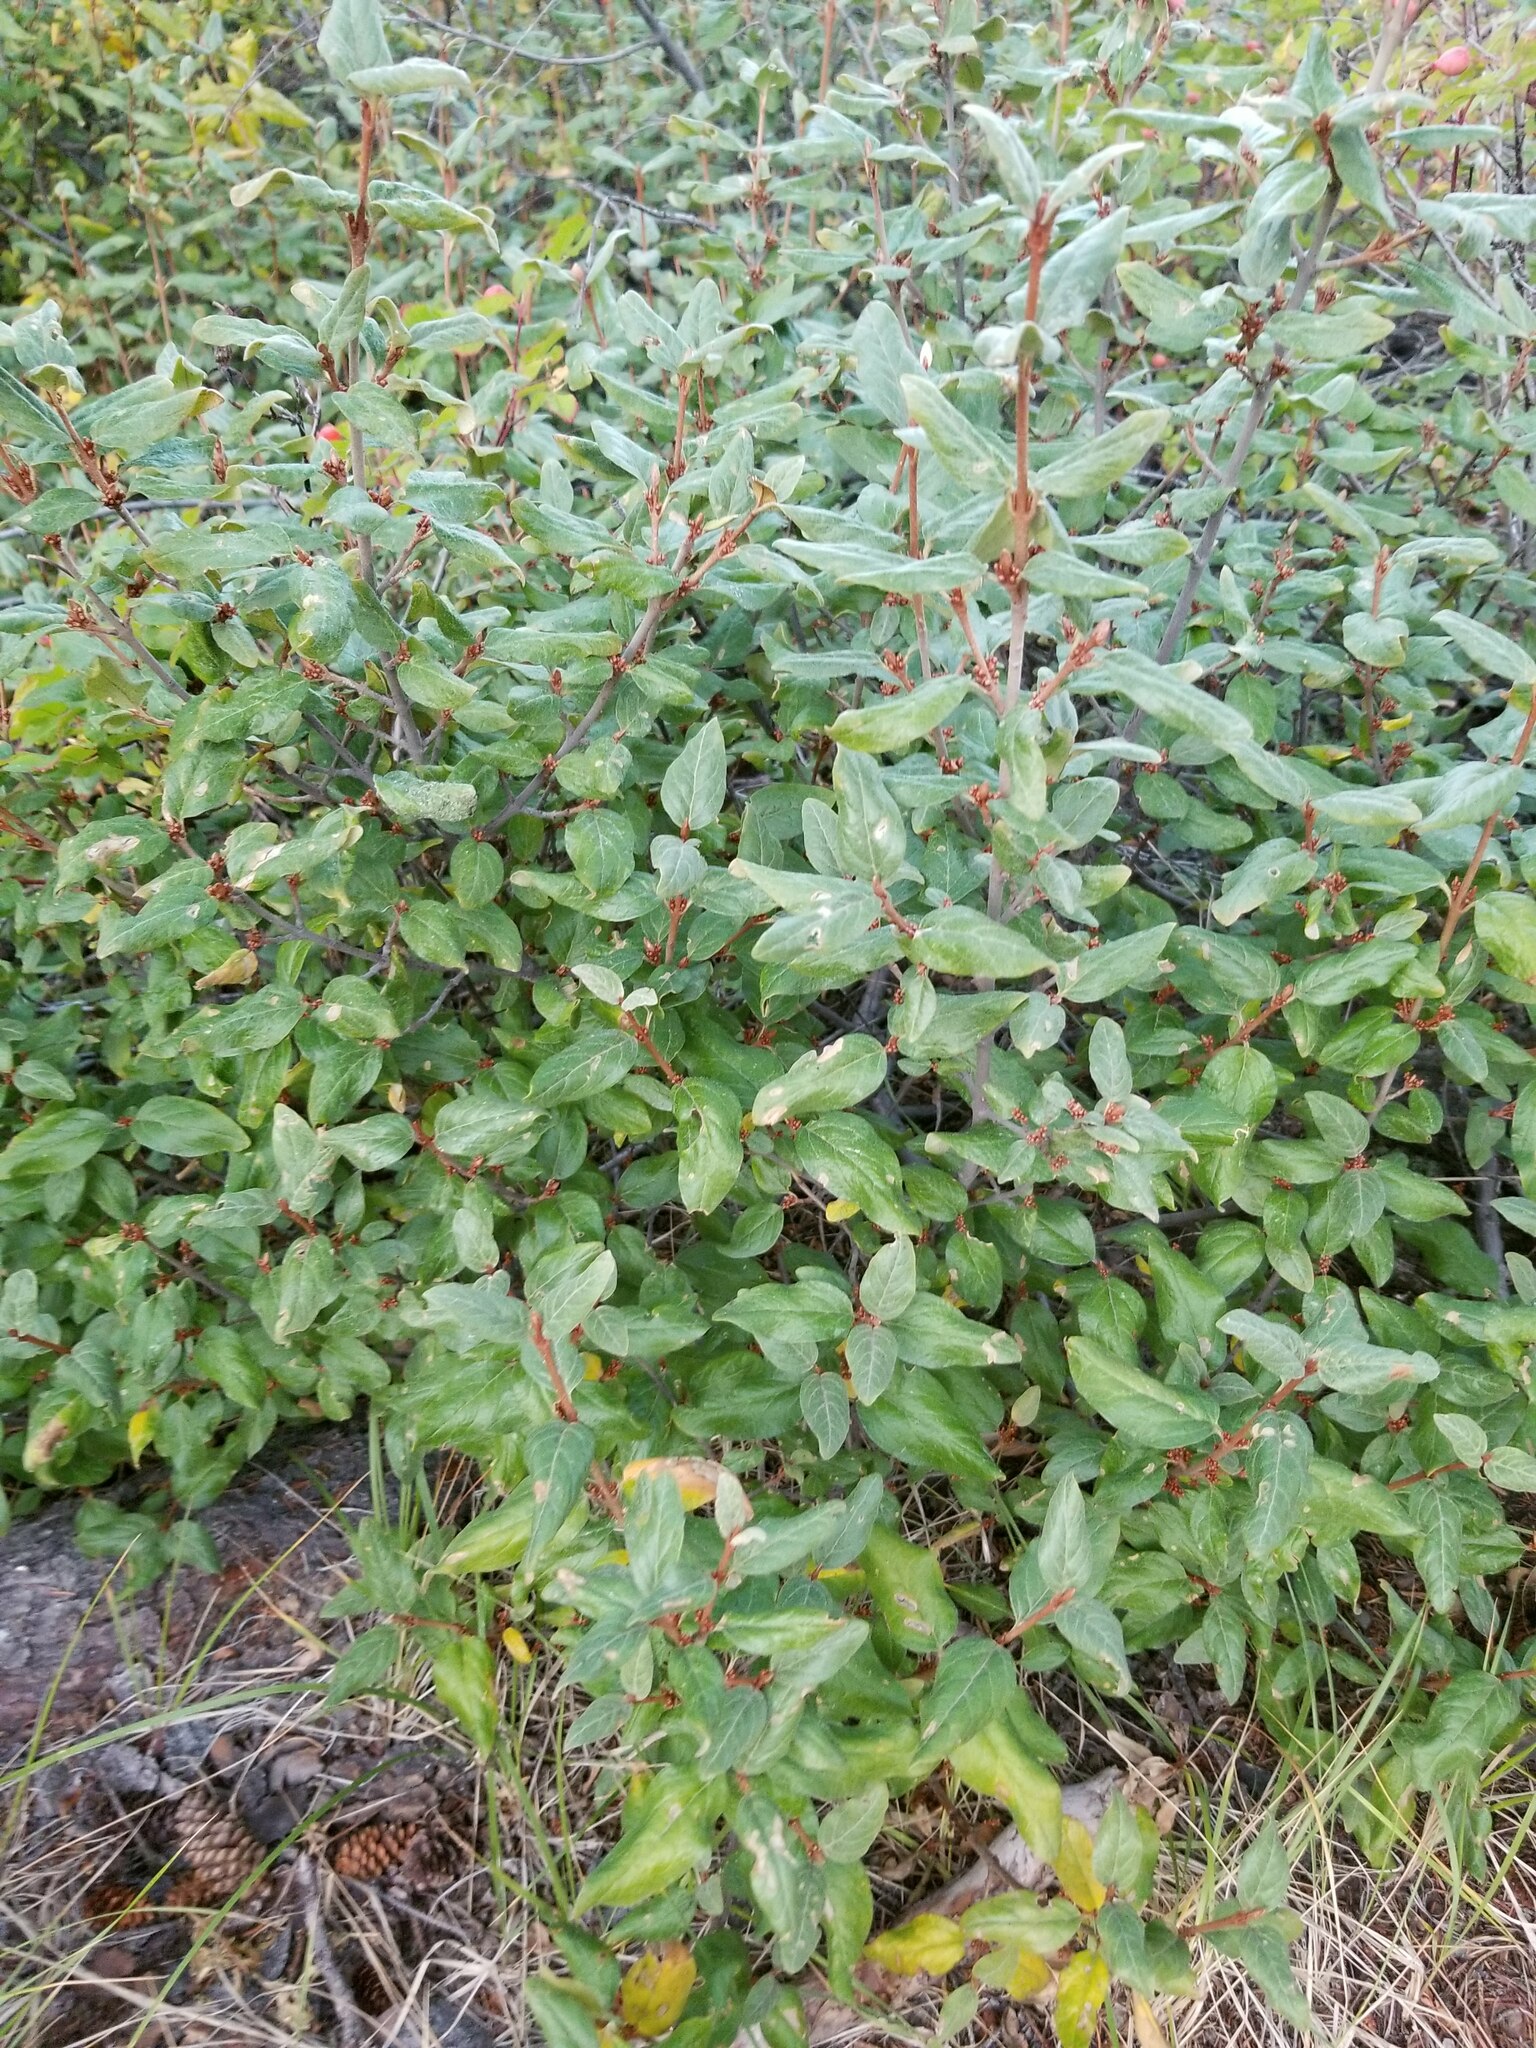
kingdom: Plantae
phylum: Tracheophyta
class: Magnoliopsida
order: Rosales
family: Elaeagnaceae
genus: Shepherdia
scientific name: Shepherdia canadensis
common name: Soapberry
